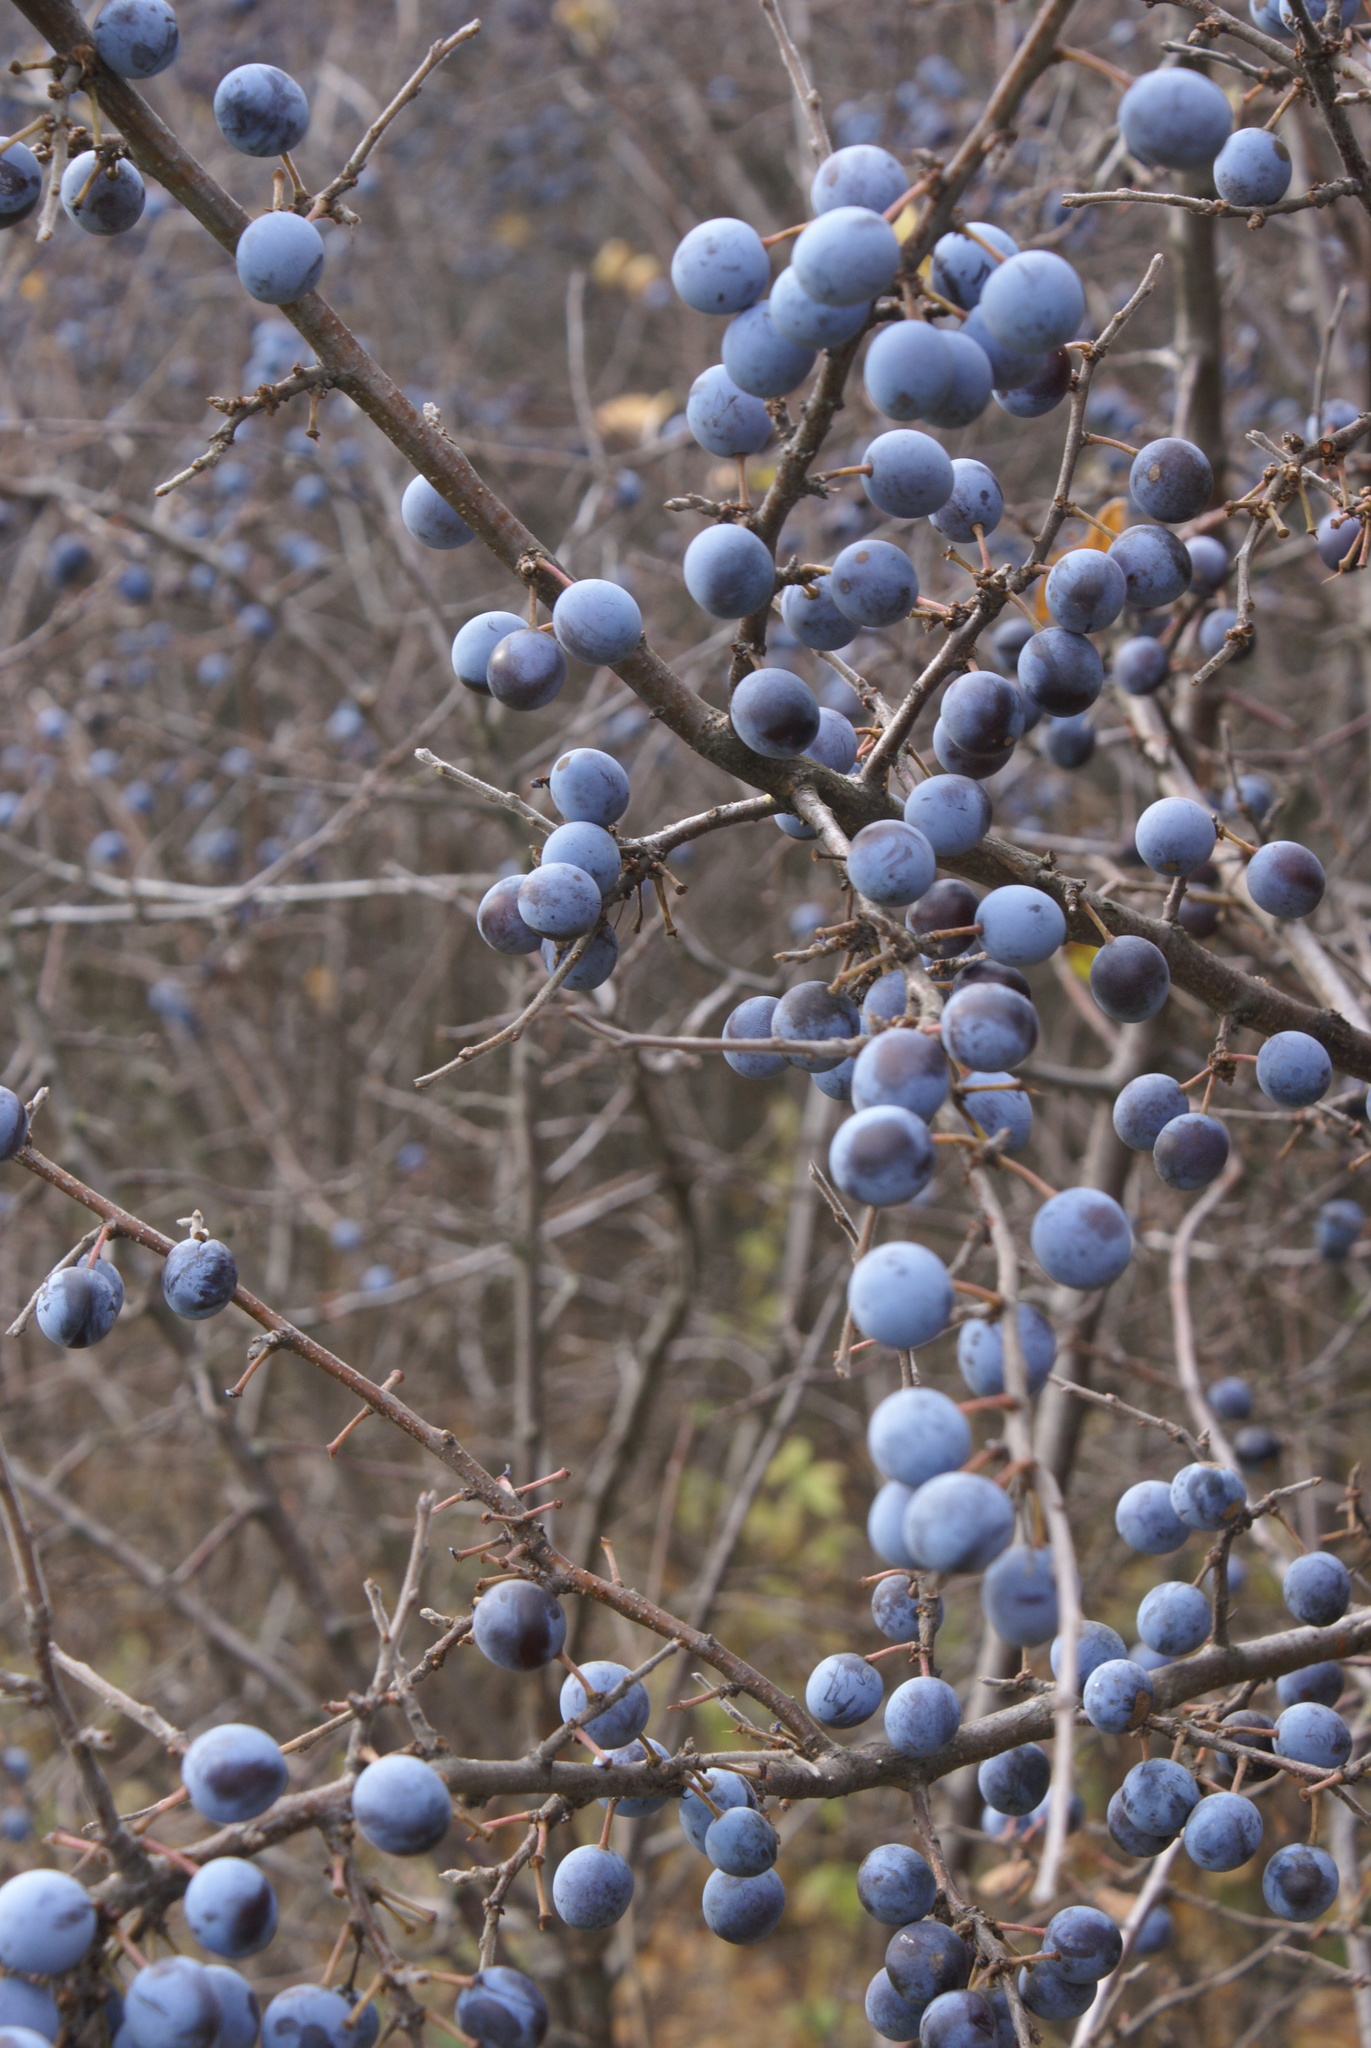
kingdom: Plantae
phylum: Tracheophyta
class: Magnoliopsida
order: Rosales
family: Rosaceae
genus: Prunus
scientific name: Prunus spinosa
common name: Blackthorn
